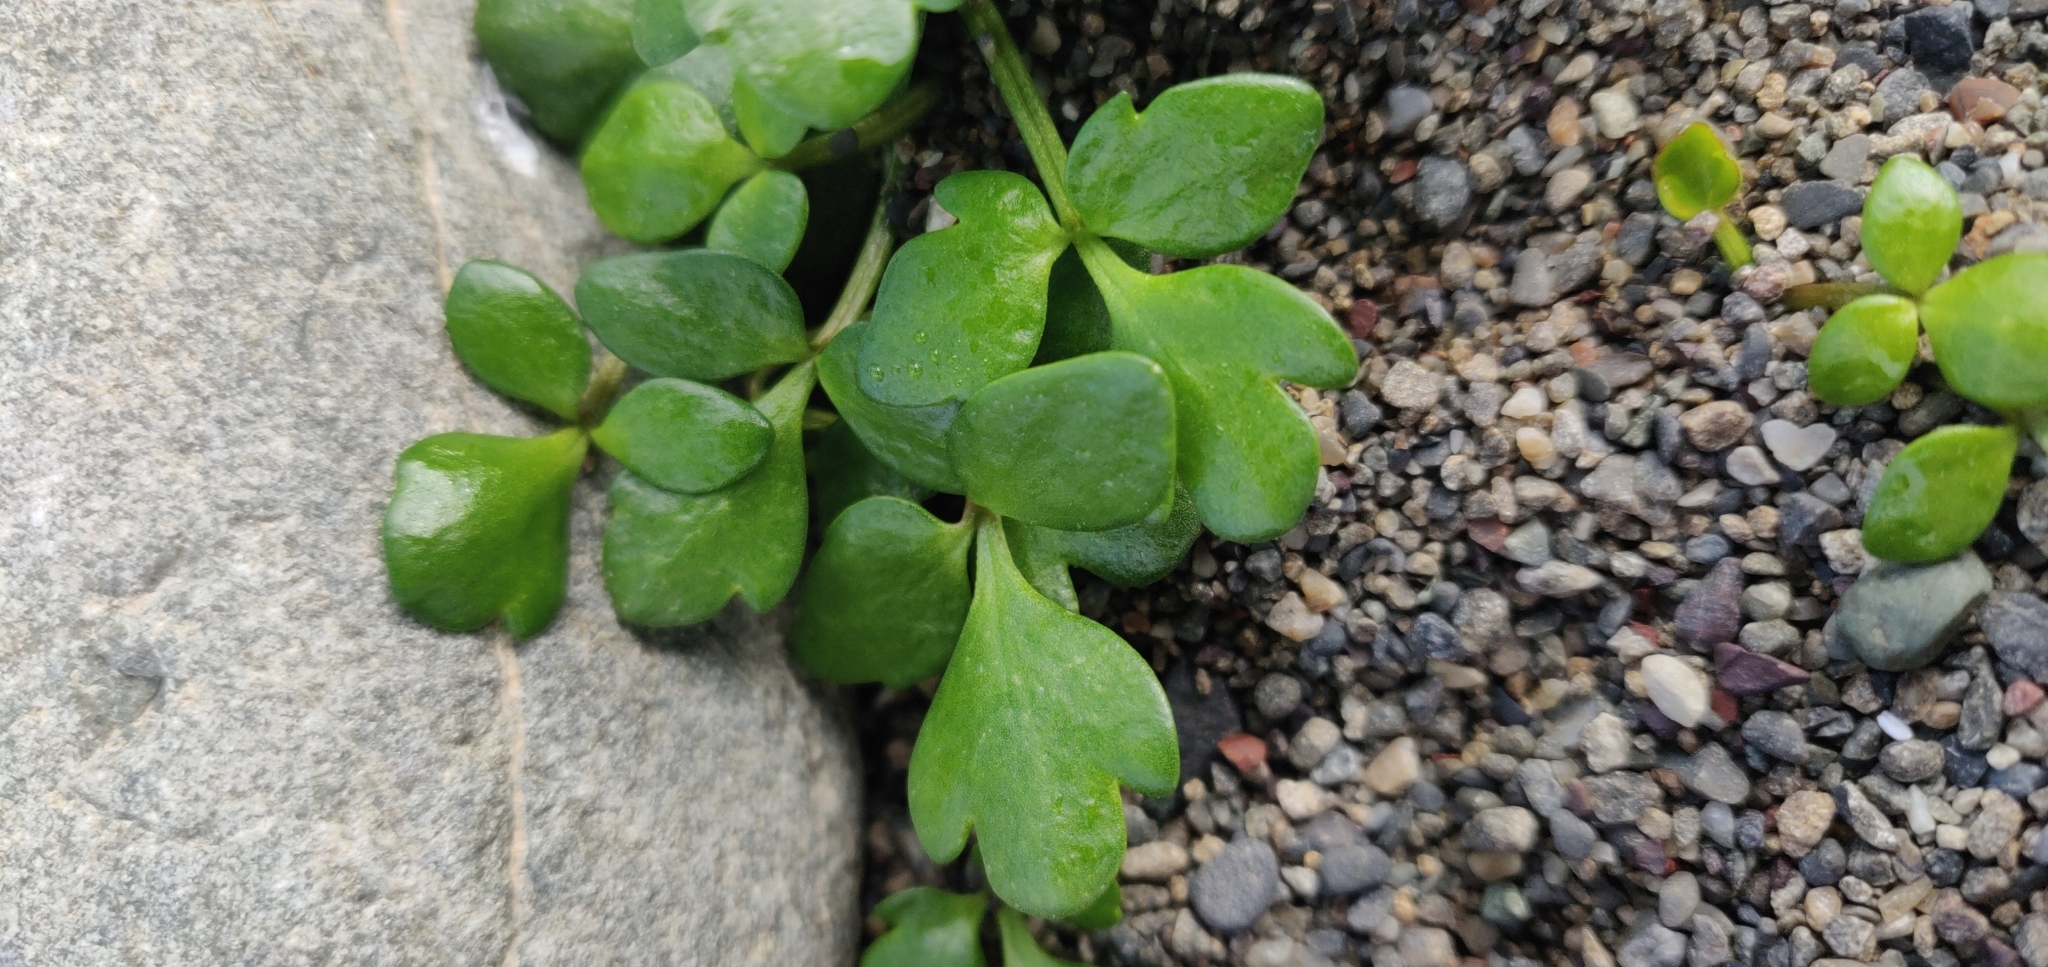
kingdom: Plantae
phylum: Tracheophyta
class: Magnoliopsida
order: Ranunculales
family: Ranunculaceae
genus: Ranunculus
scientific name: Ranunculus acaulis
